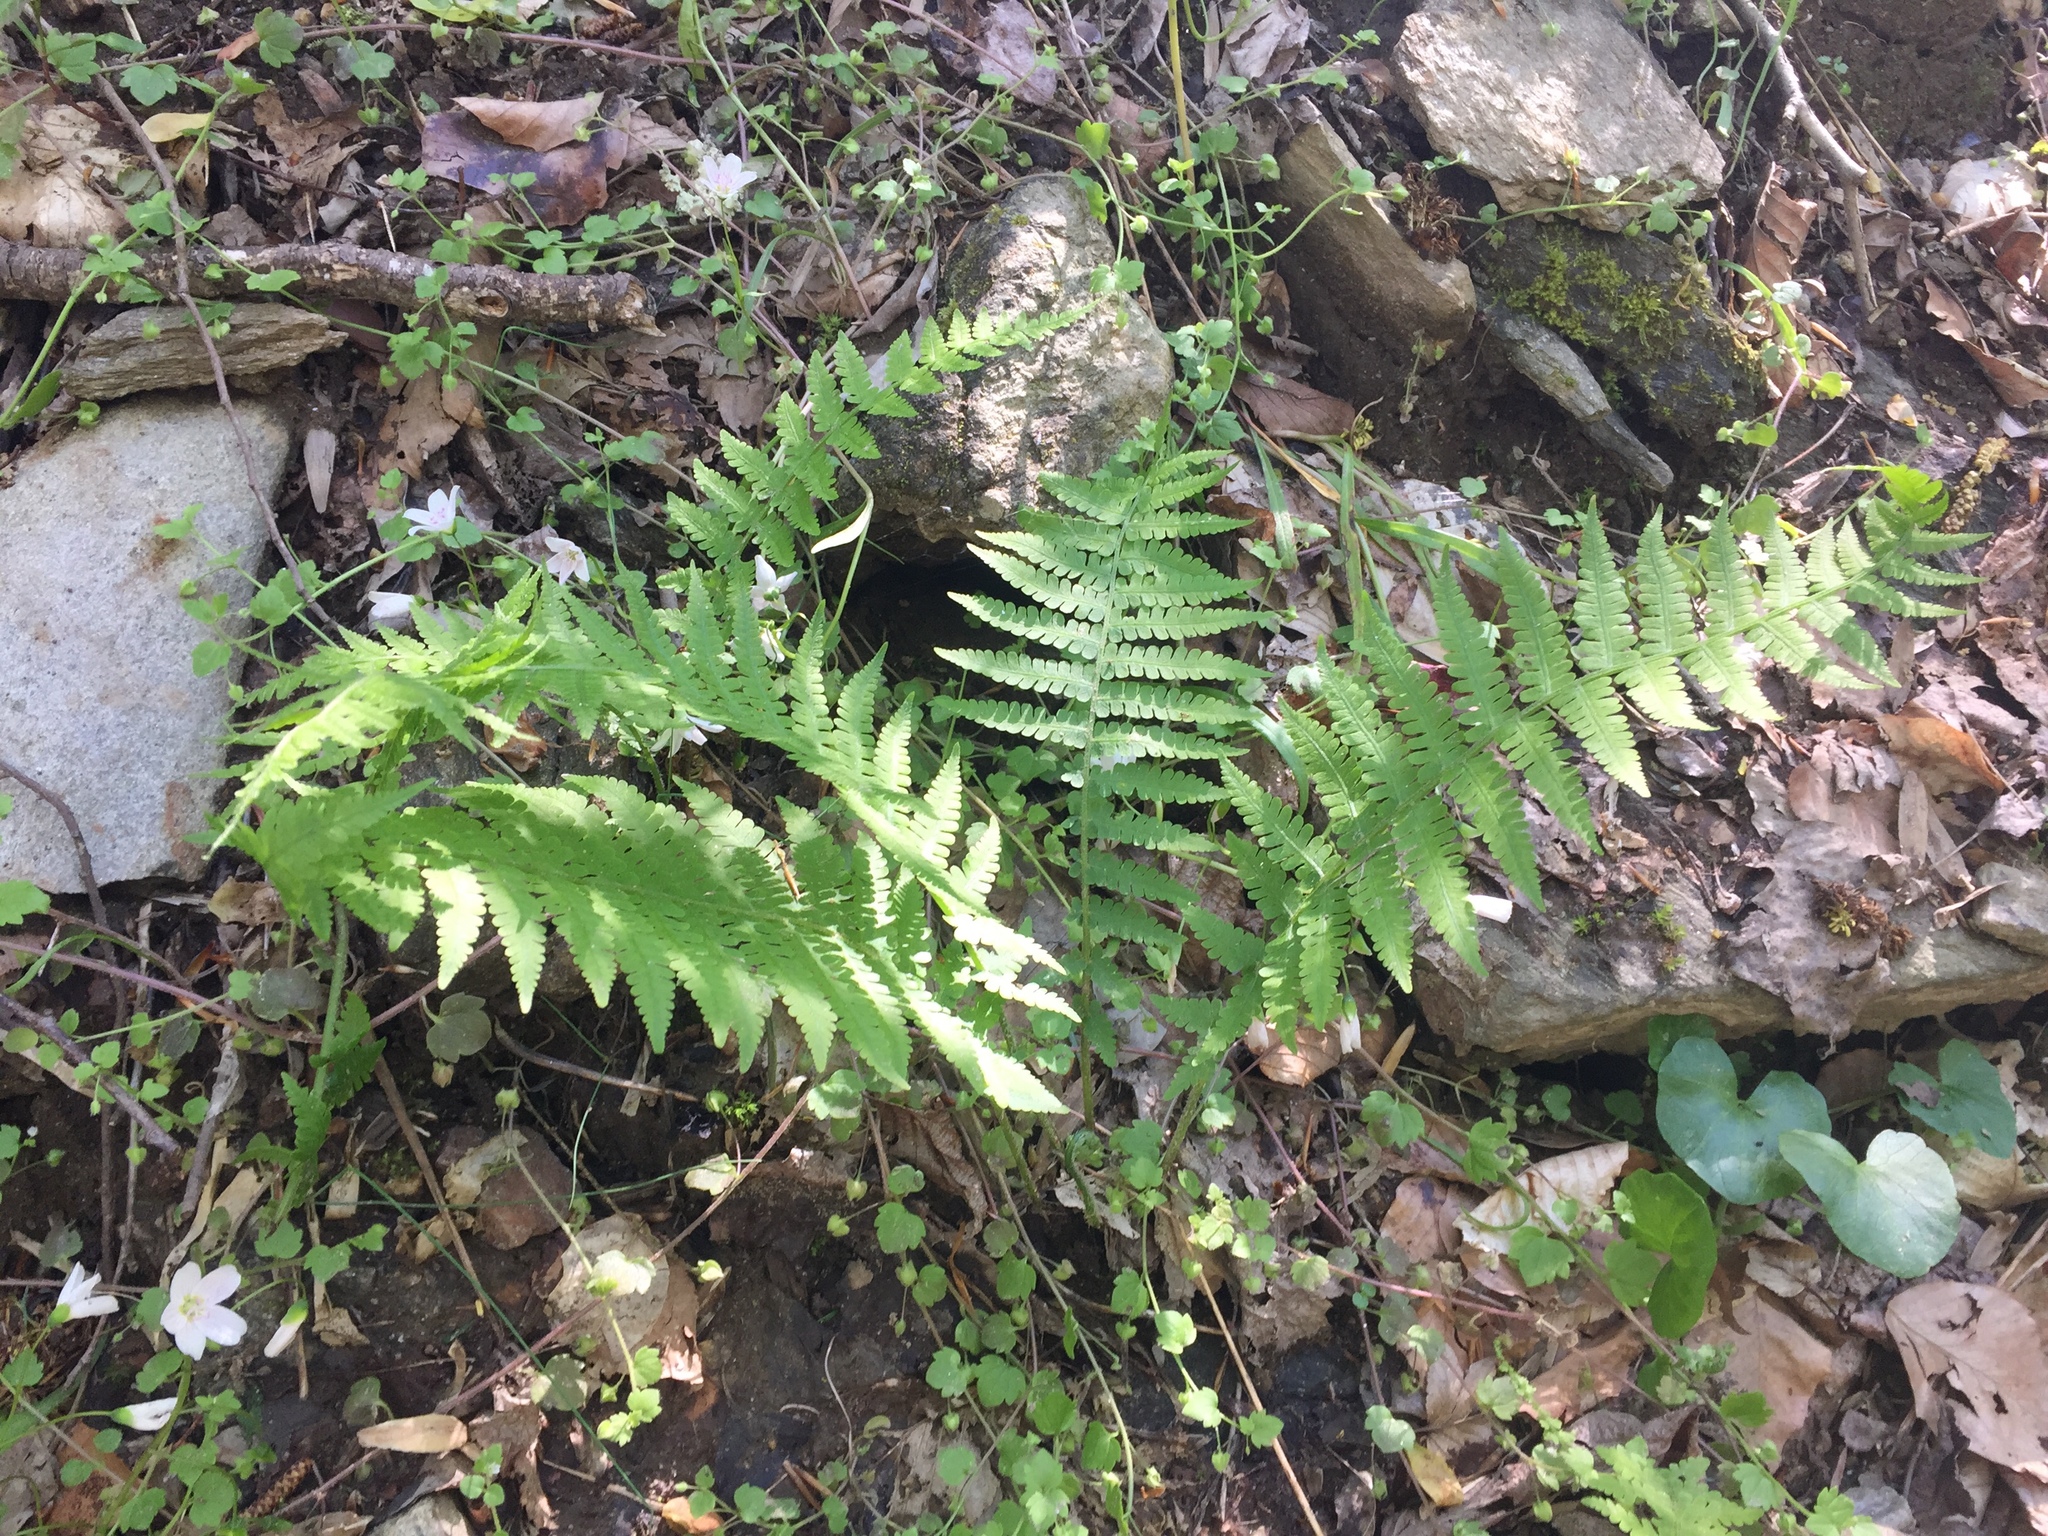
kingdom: Plantae
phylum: Tracheophyta
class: Polypodiopsida
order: Polypodiales
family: Athyriaceae
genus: Deparia
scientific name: Deparia acrostichoides
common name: Silver false spleenwort
